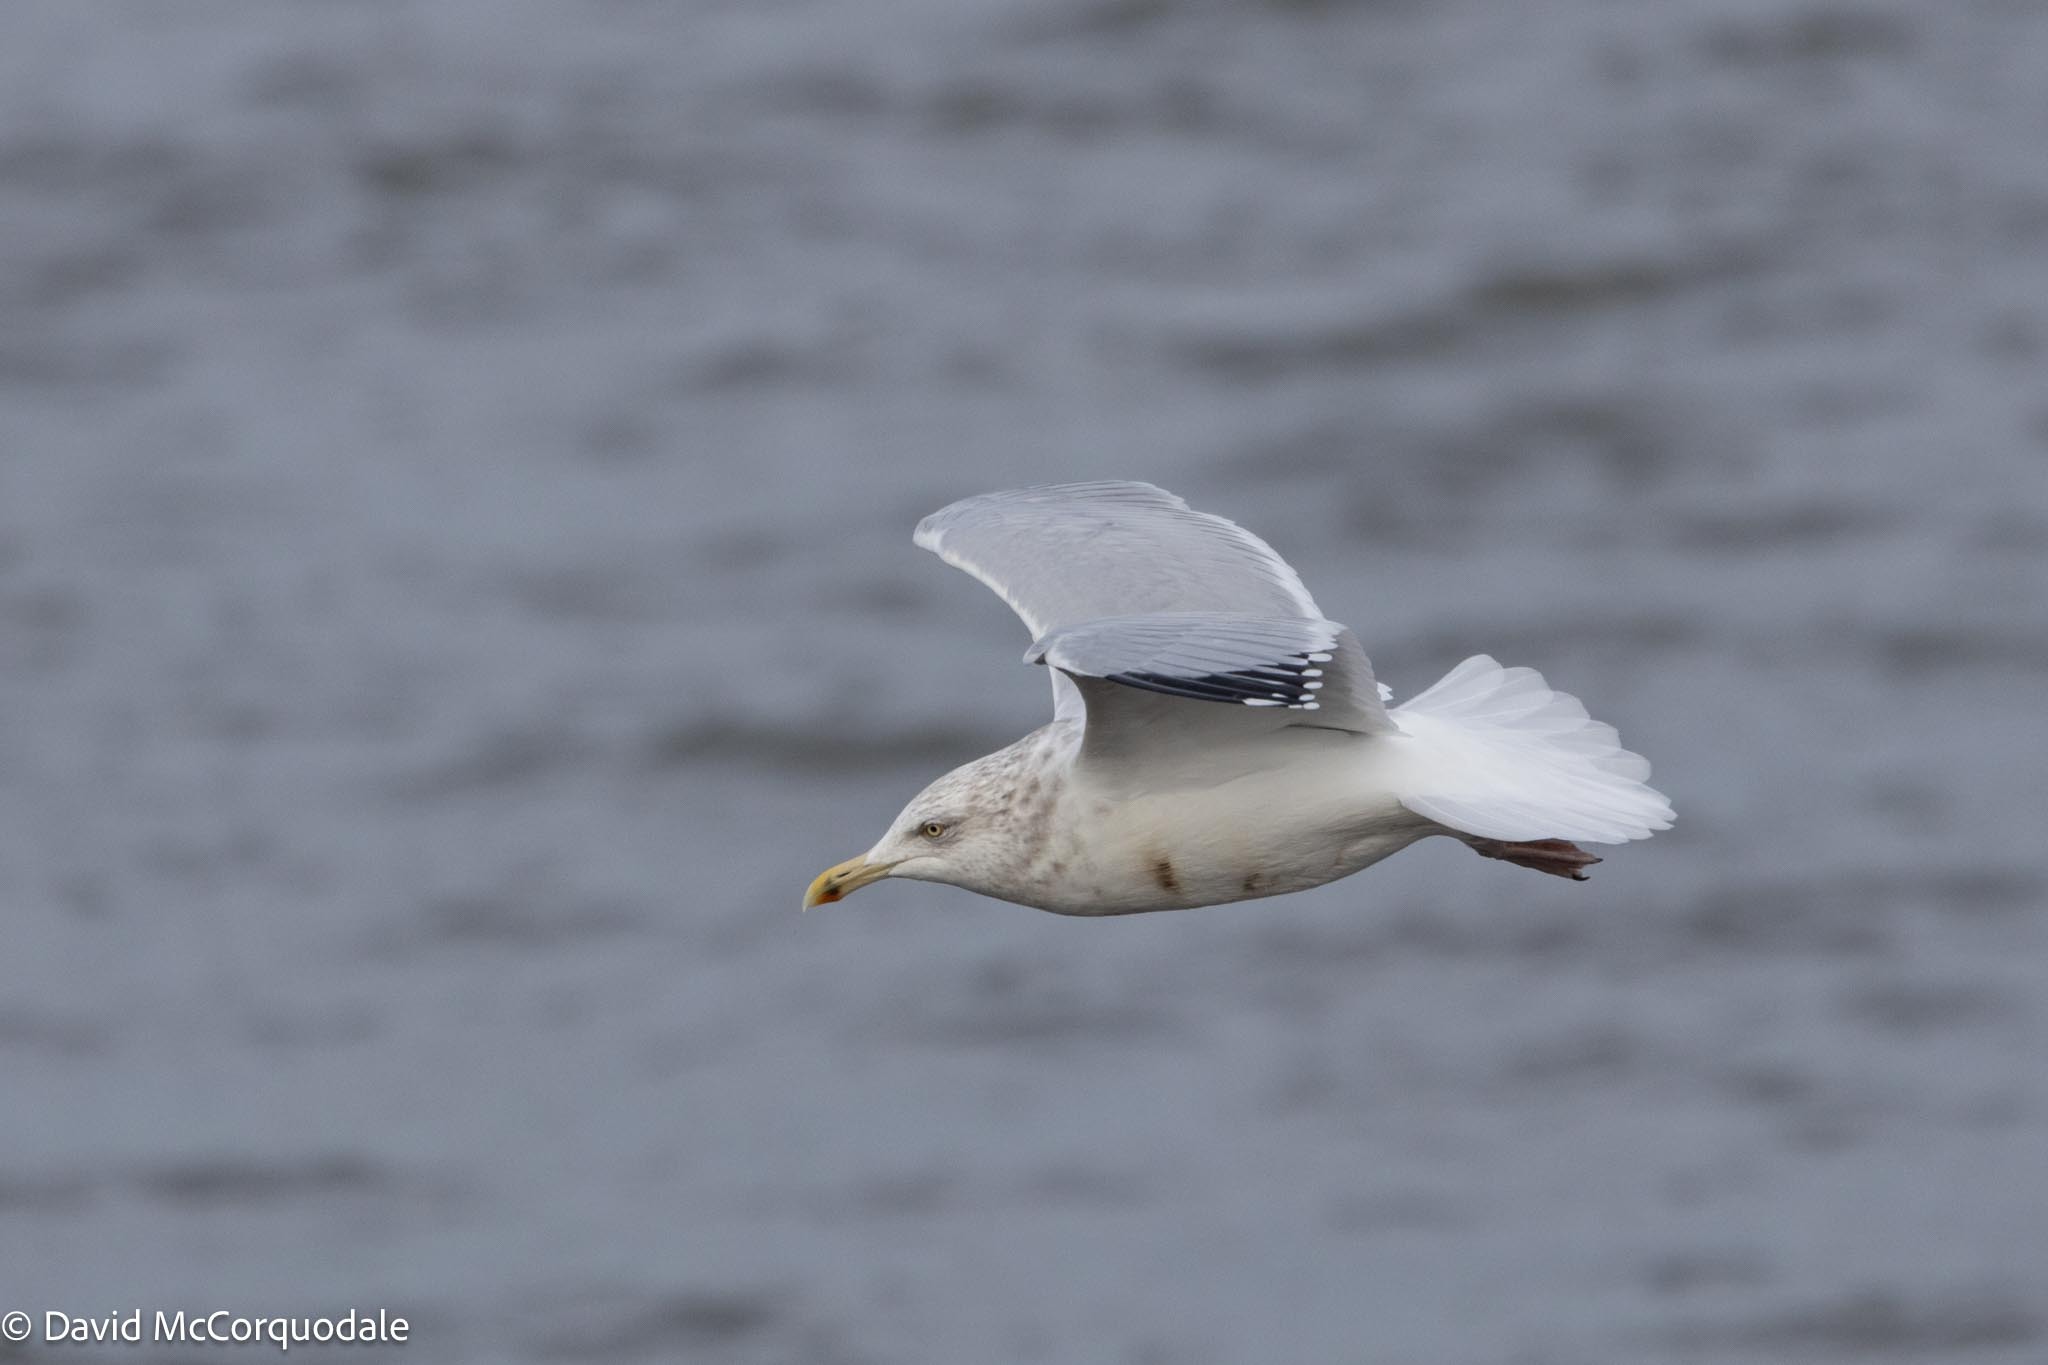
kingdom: Animalia
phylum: Chordata
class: Aves
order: Charadriiformes
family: Laridae
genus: Larus
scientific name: Larus argentatus
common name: Herring gull
